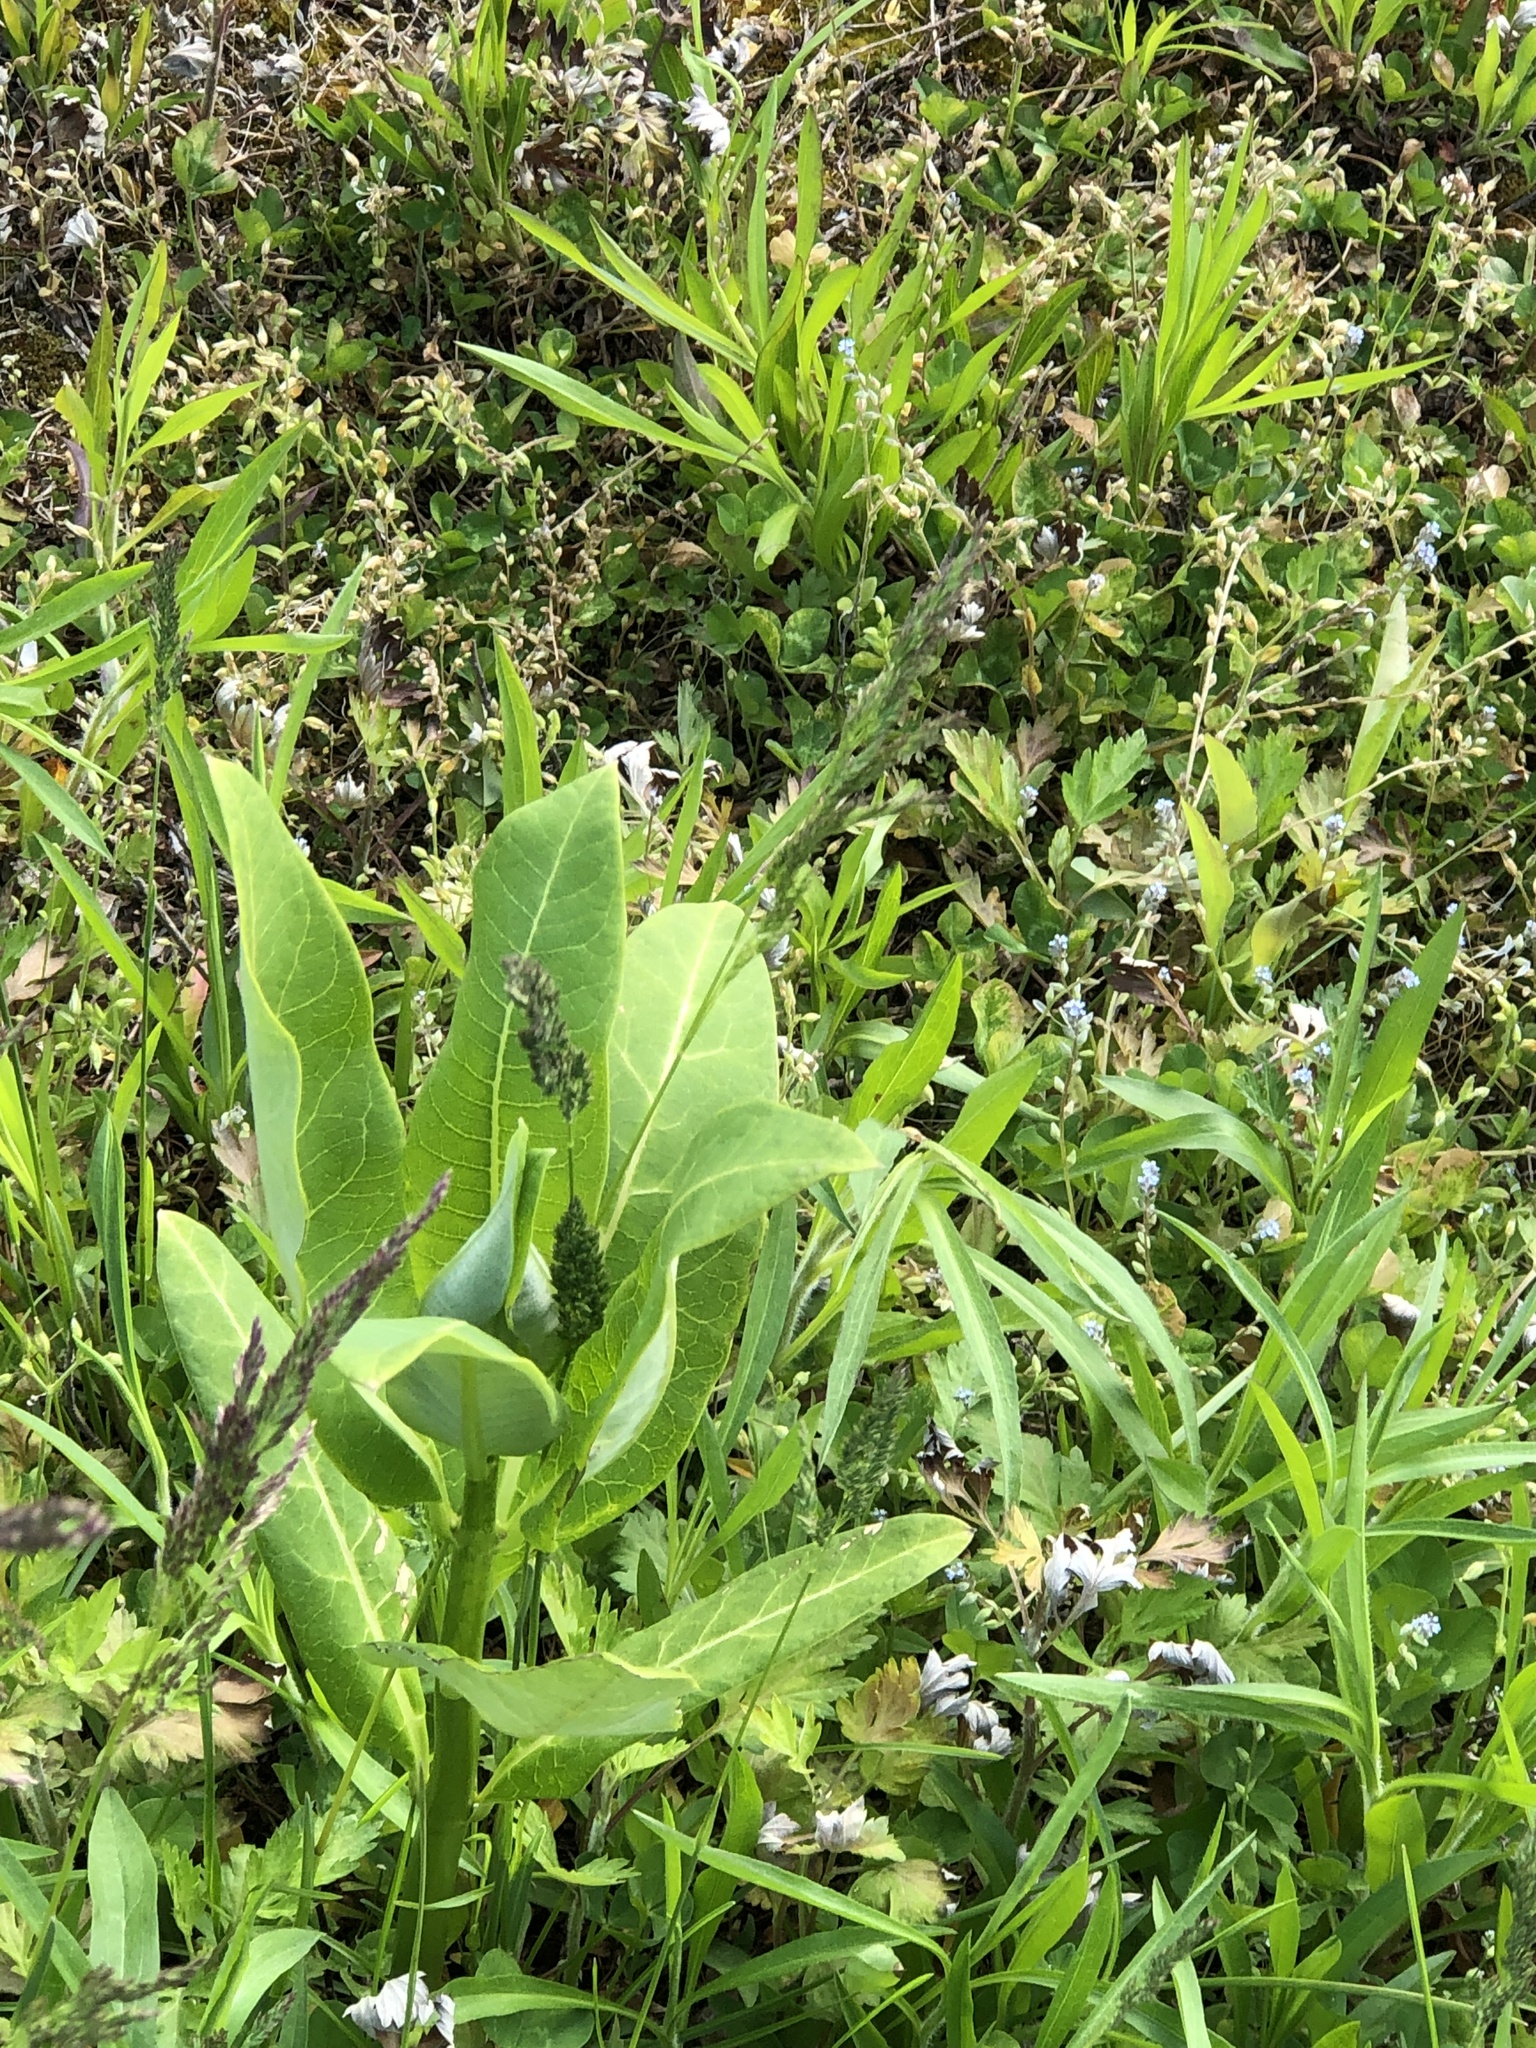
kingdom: Plantae
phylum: Tracheophyta
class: Magnoliopsida
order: Gentianales
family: Apocynaceae
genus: Asclepias
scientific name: Asclepias syriaca
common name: Common milkweed
